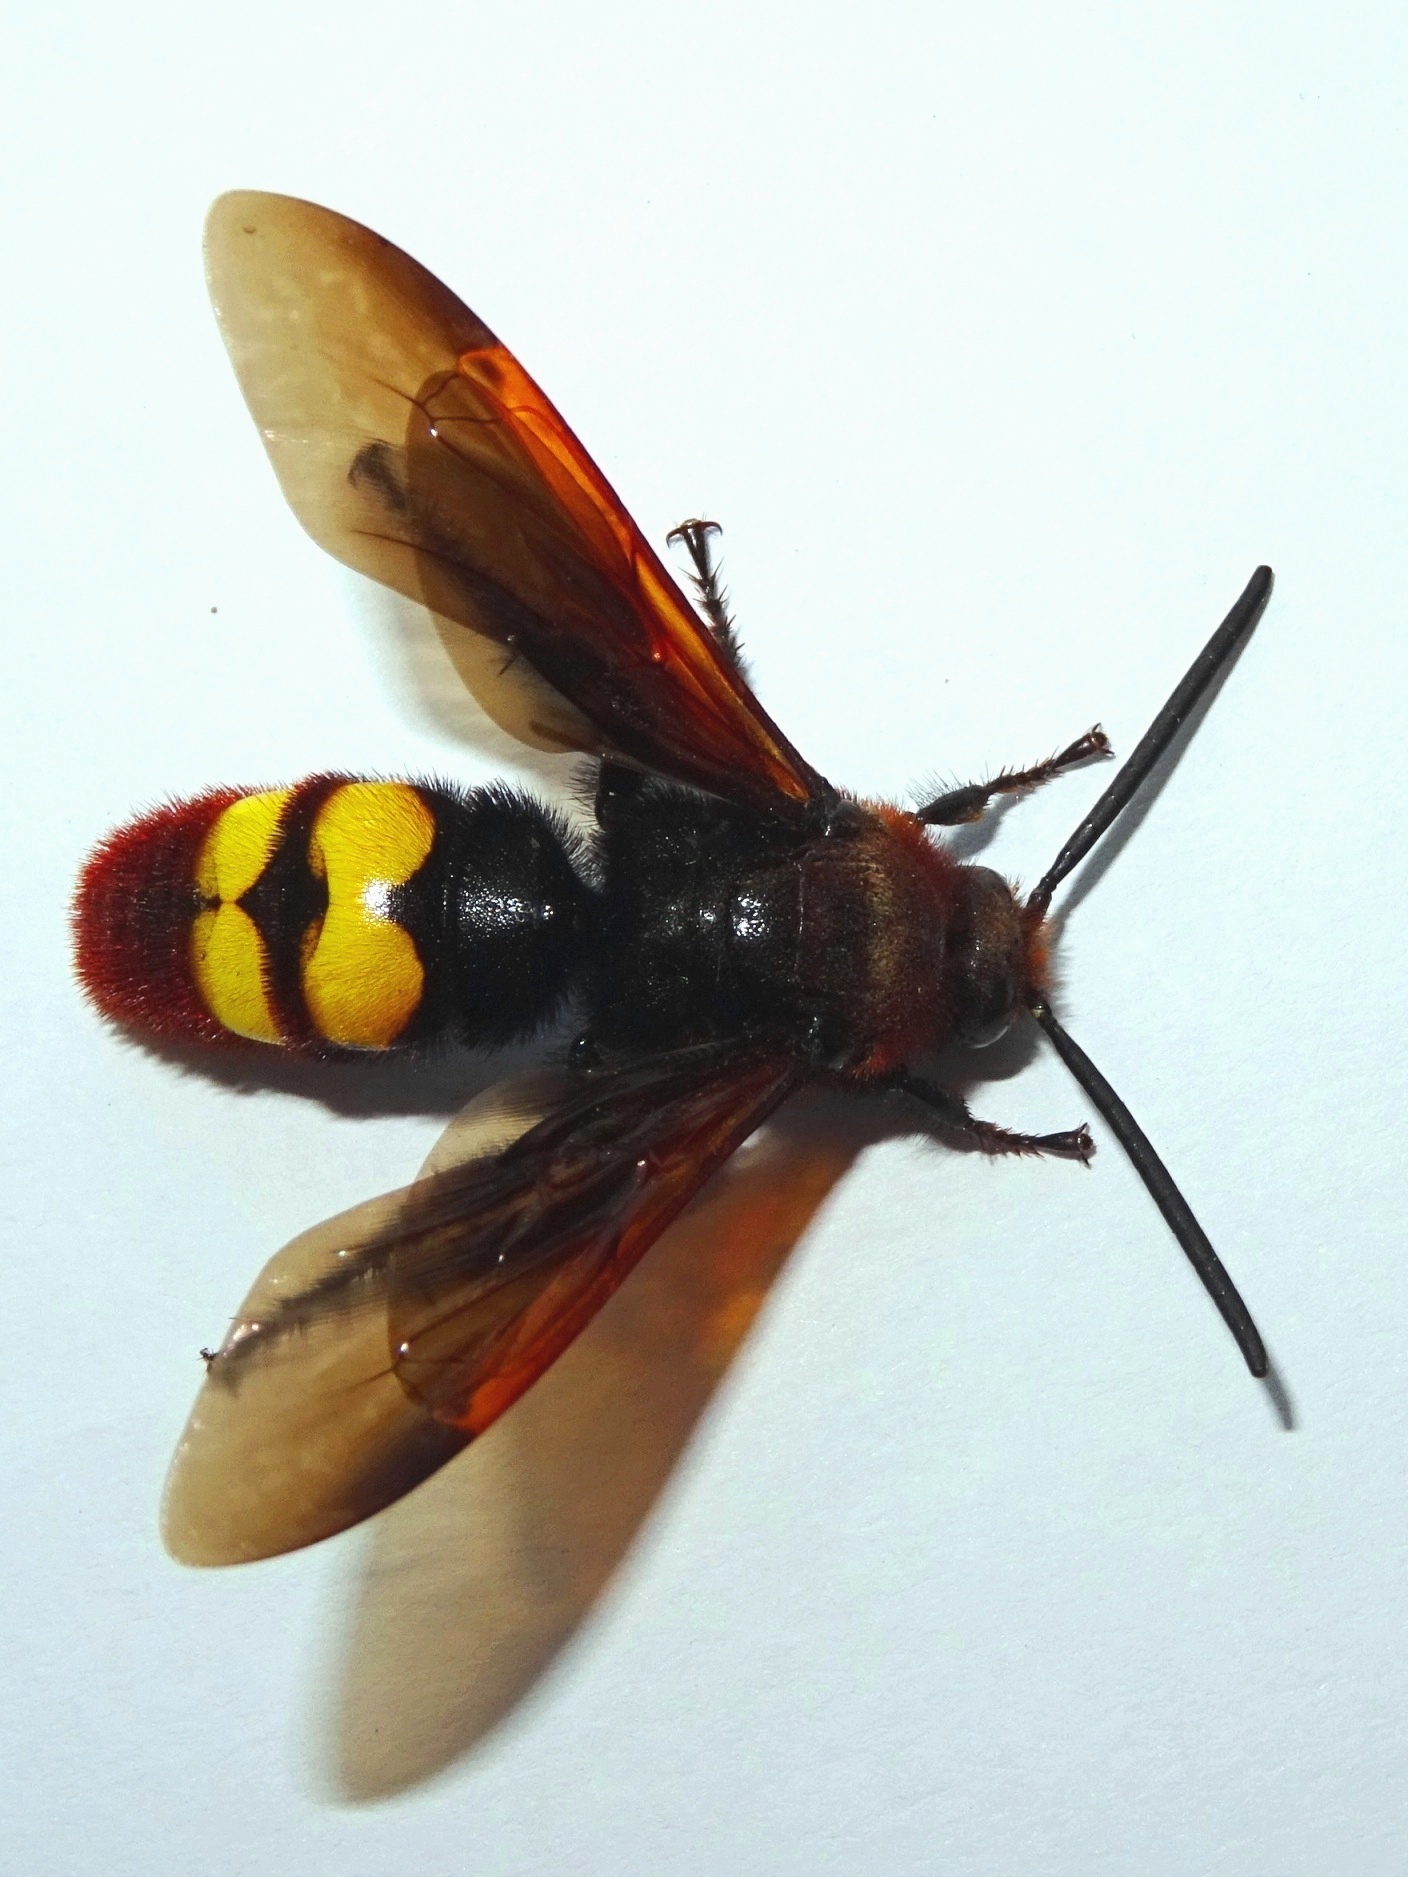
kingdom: Animalia
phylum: Arthropoda
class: Insecta
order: Hymenoptera
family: Scoliidae
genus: Megascolia
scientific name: Megascolia maculata
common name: Mammoth wasp
